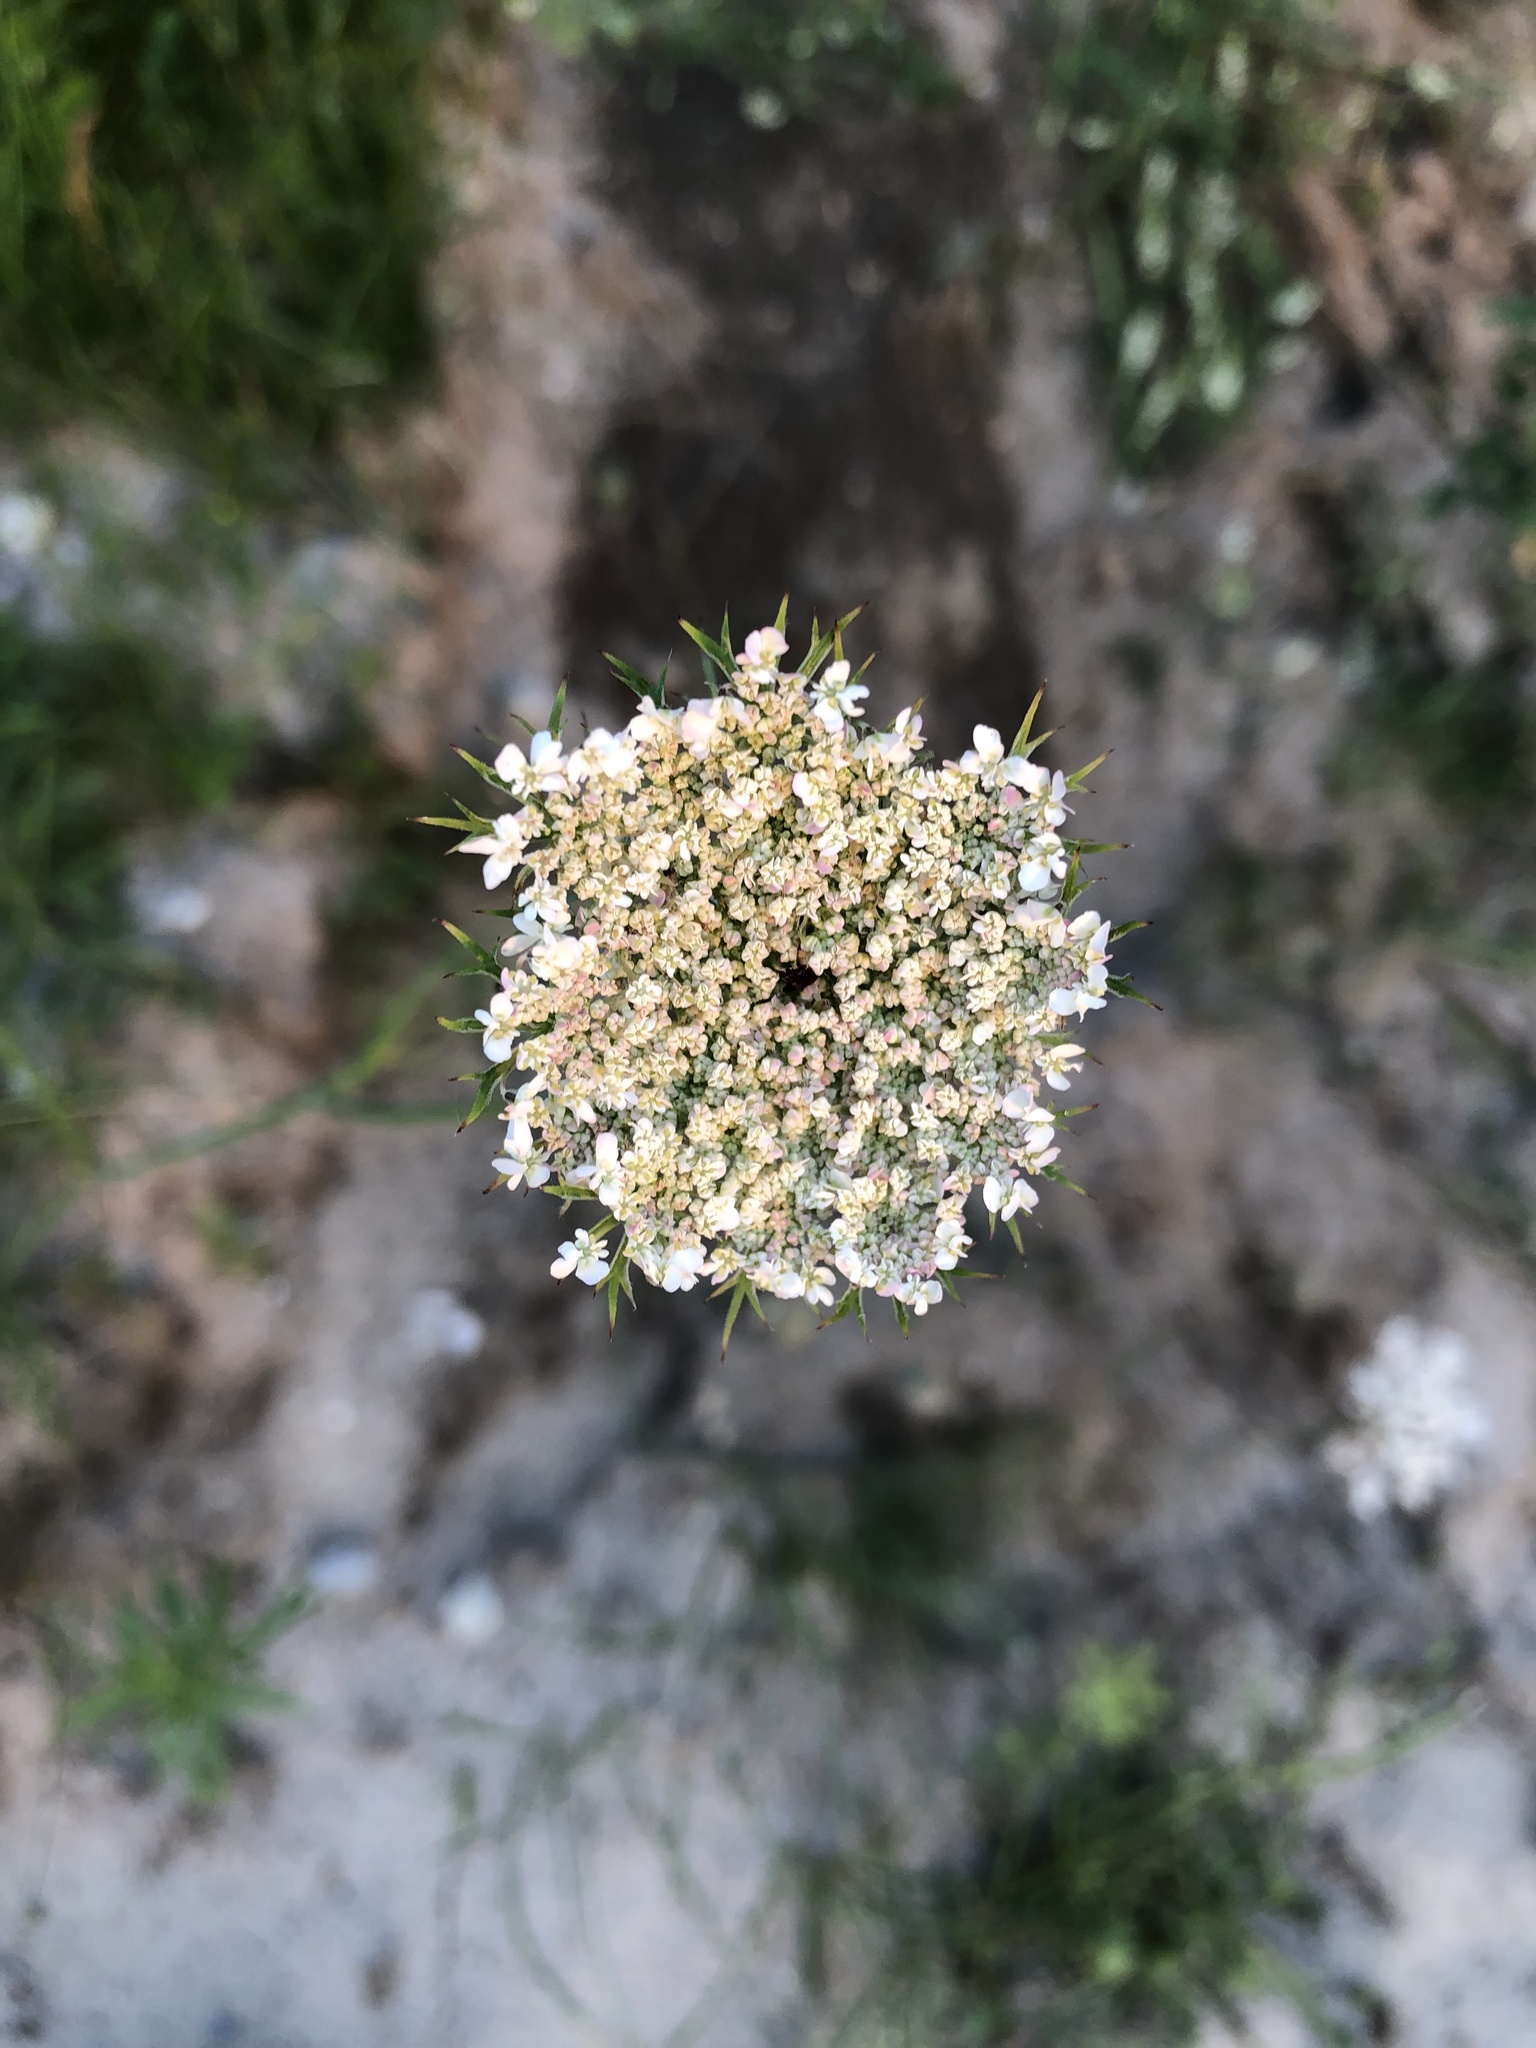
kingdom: Plantae
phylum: Tracheophyta
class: Magnoliopsida
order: Apiales
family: Apiaceae
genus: Daucus
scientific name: Daucus carota
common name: Wild carrot
